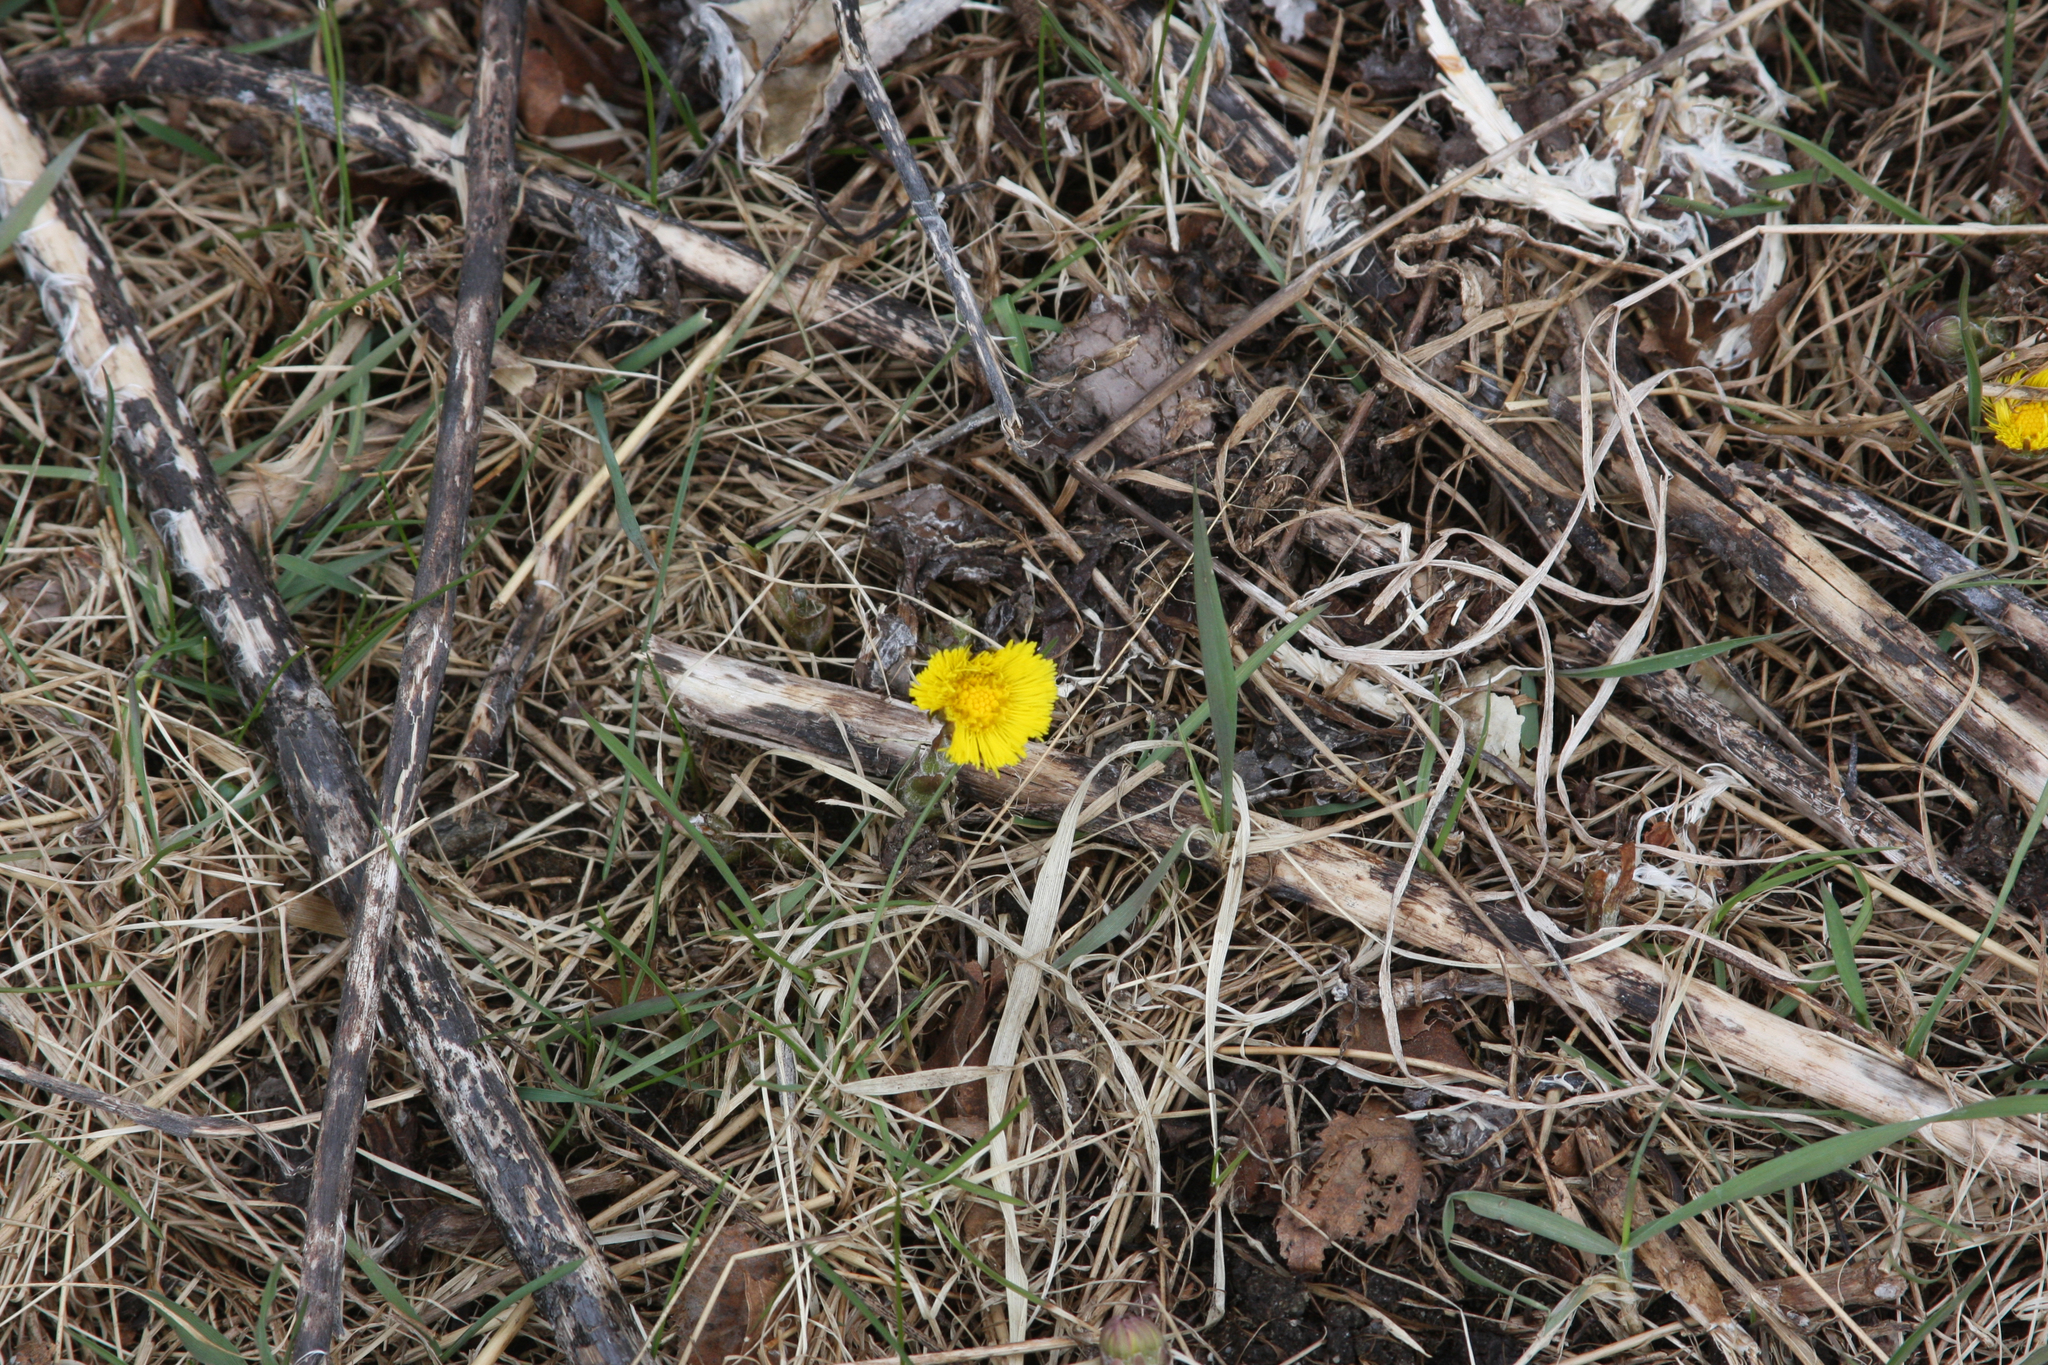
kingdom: Plantae
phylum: Tracheophyta
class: Magnoliopsida
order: Asterales
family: Asteraceae
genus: Tussilago
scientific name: Tussilago farfara
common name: Coltsfoot
